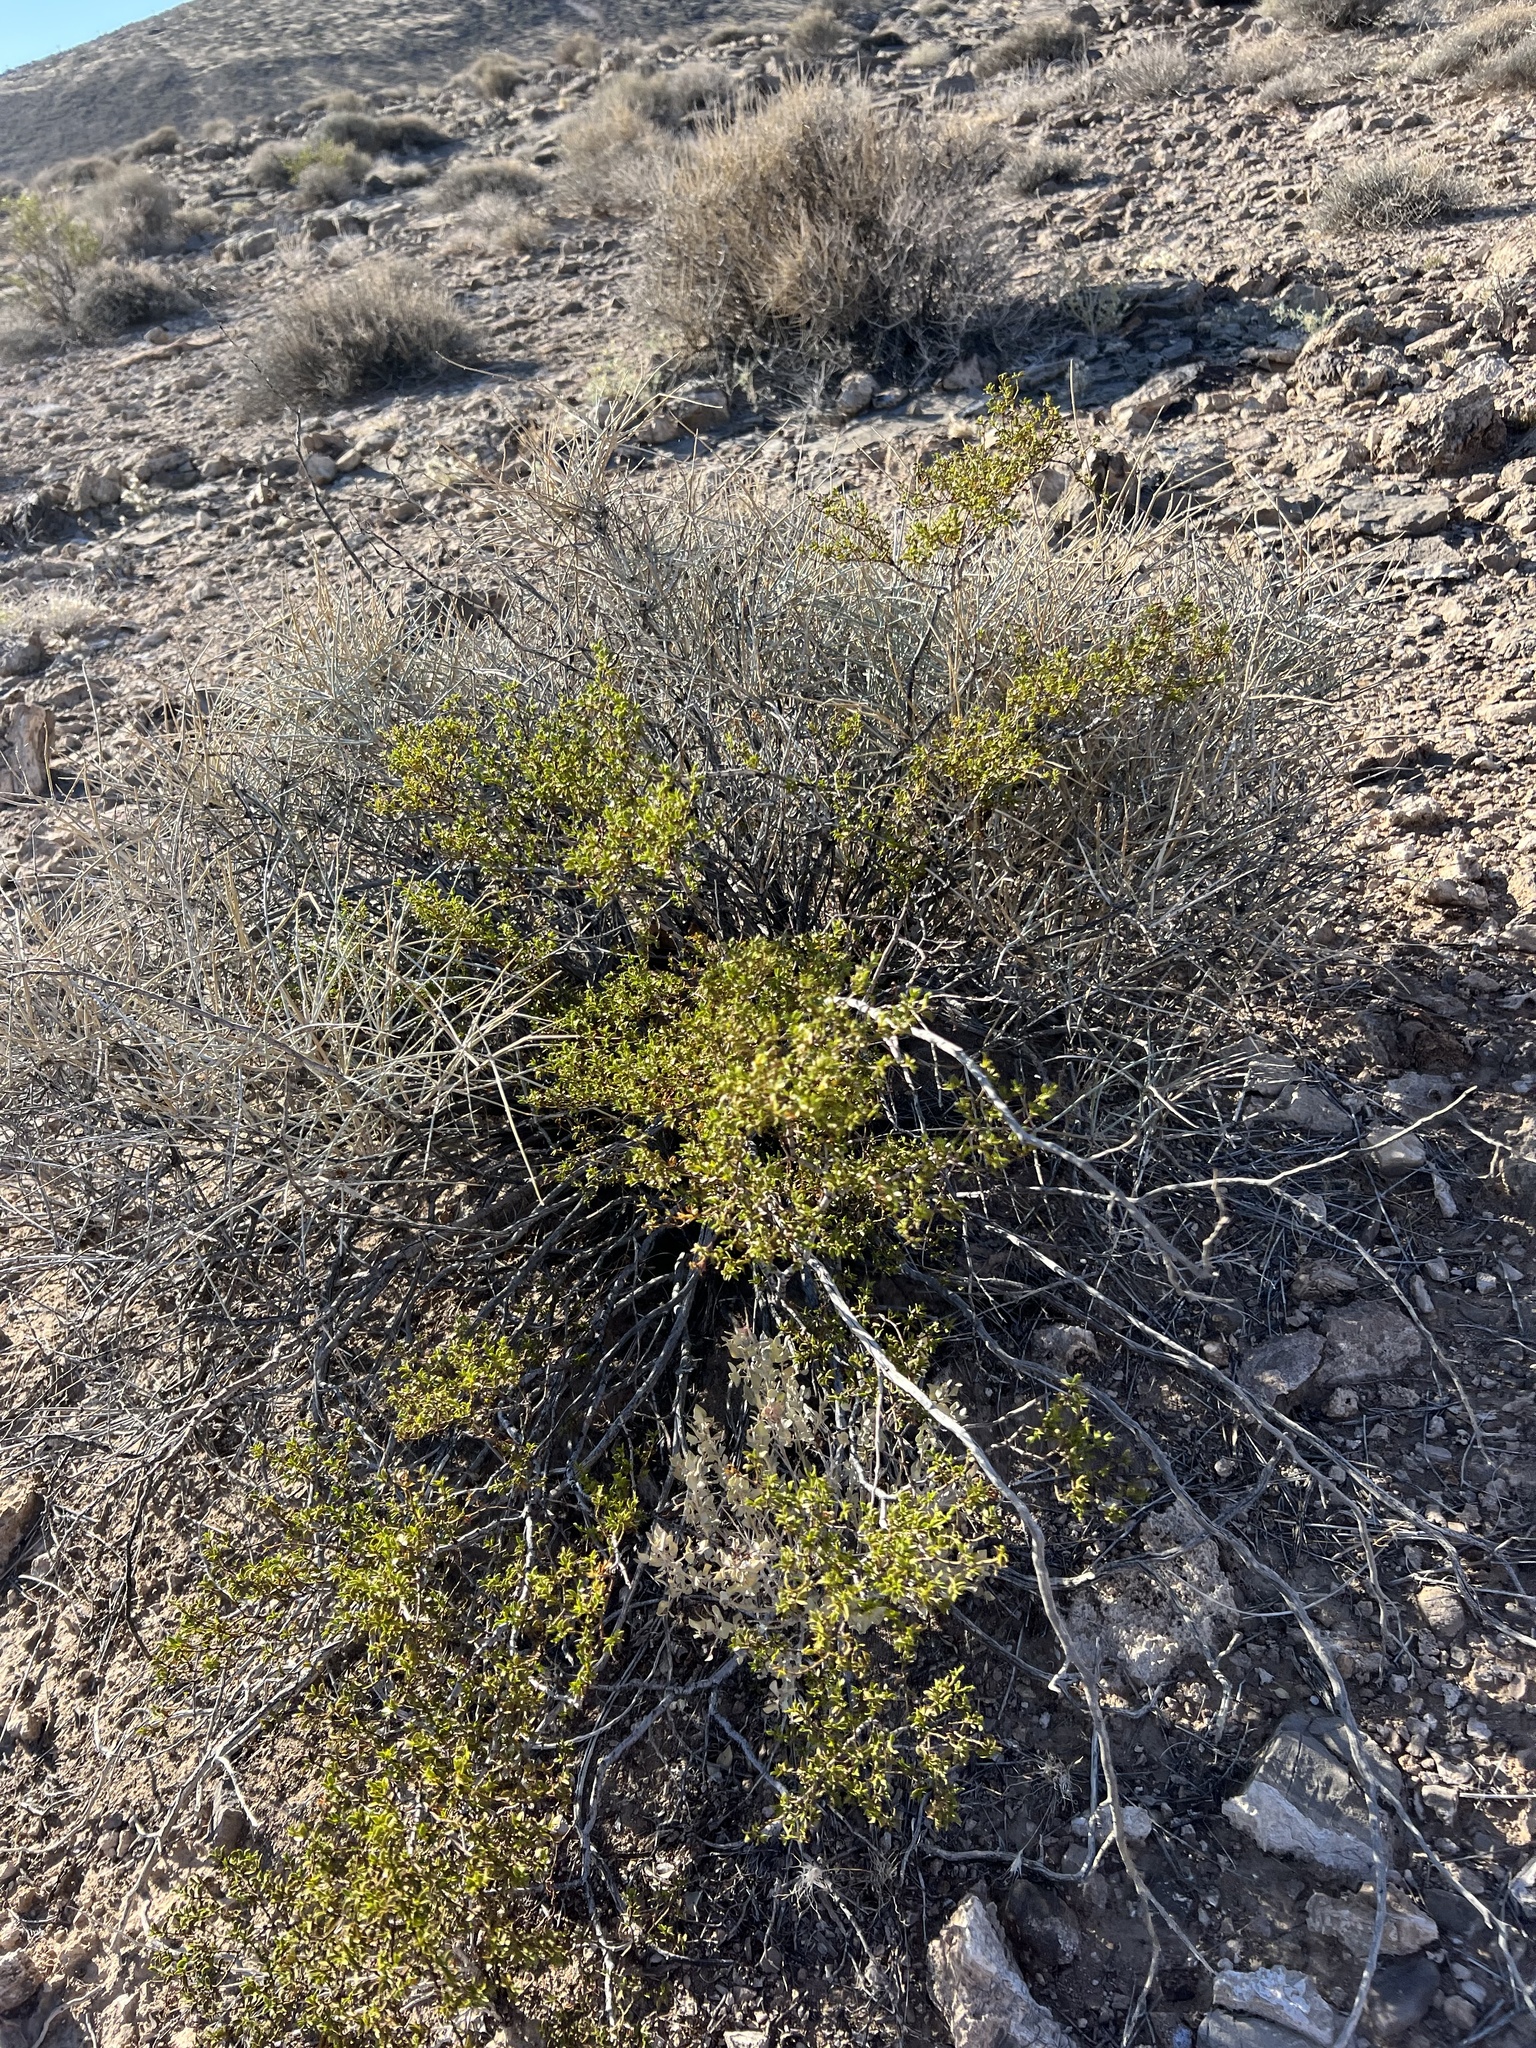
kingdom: Plantae
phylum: Tracheophyta
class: Magnoliopsida
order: Zygophyllales
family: Zygophyllaceae
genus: Larrea
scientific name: Larrea tridentata
